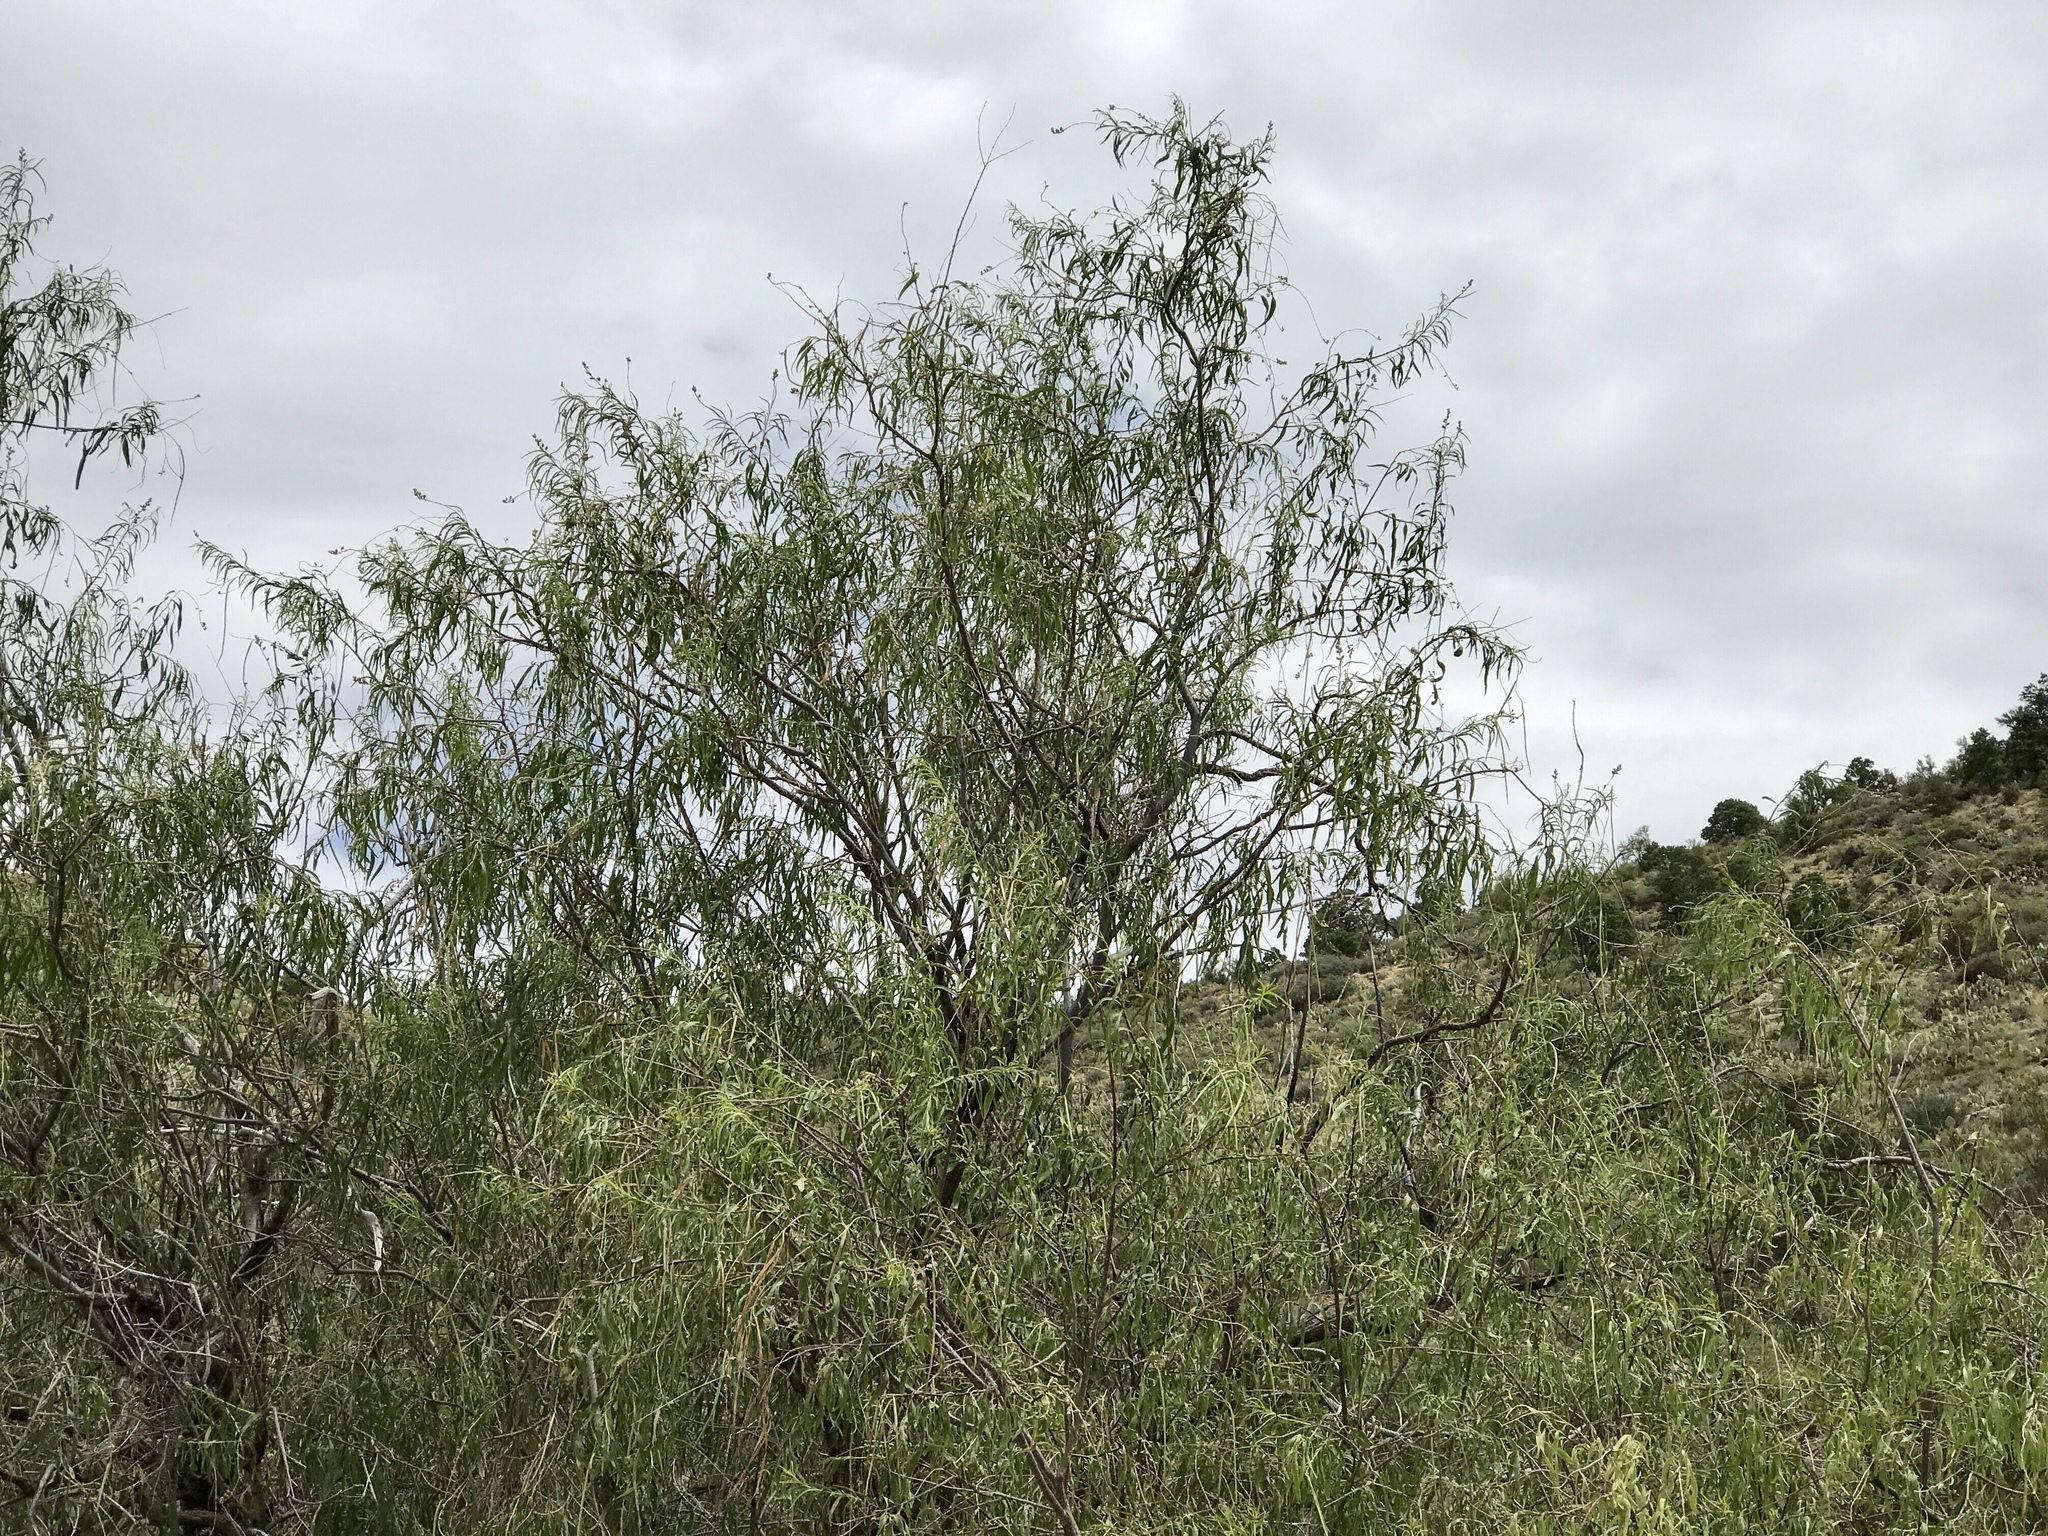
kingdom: Plantae
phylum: Tracheophyta
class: Magnoliopsida
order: Lamiales
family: Bignoniaceae
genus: Chilopsis
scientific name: Chilopsis linearis
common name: Desert-willow
